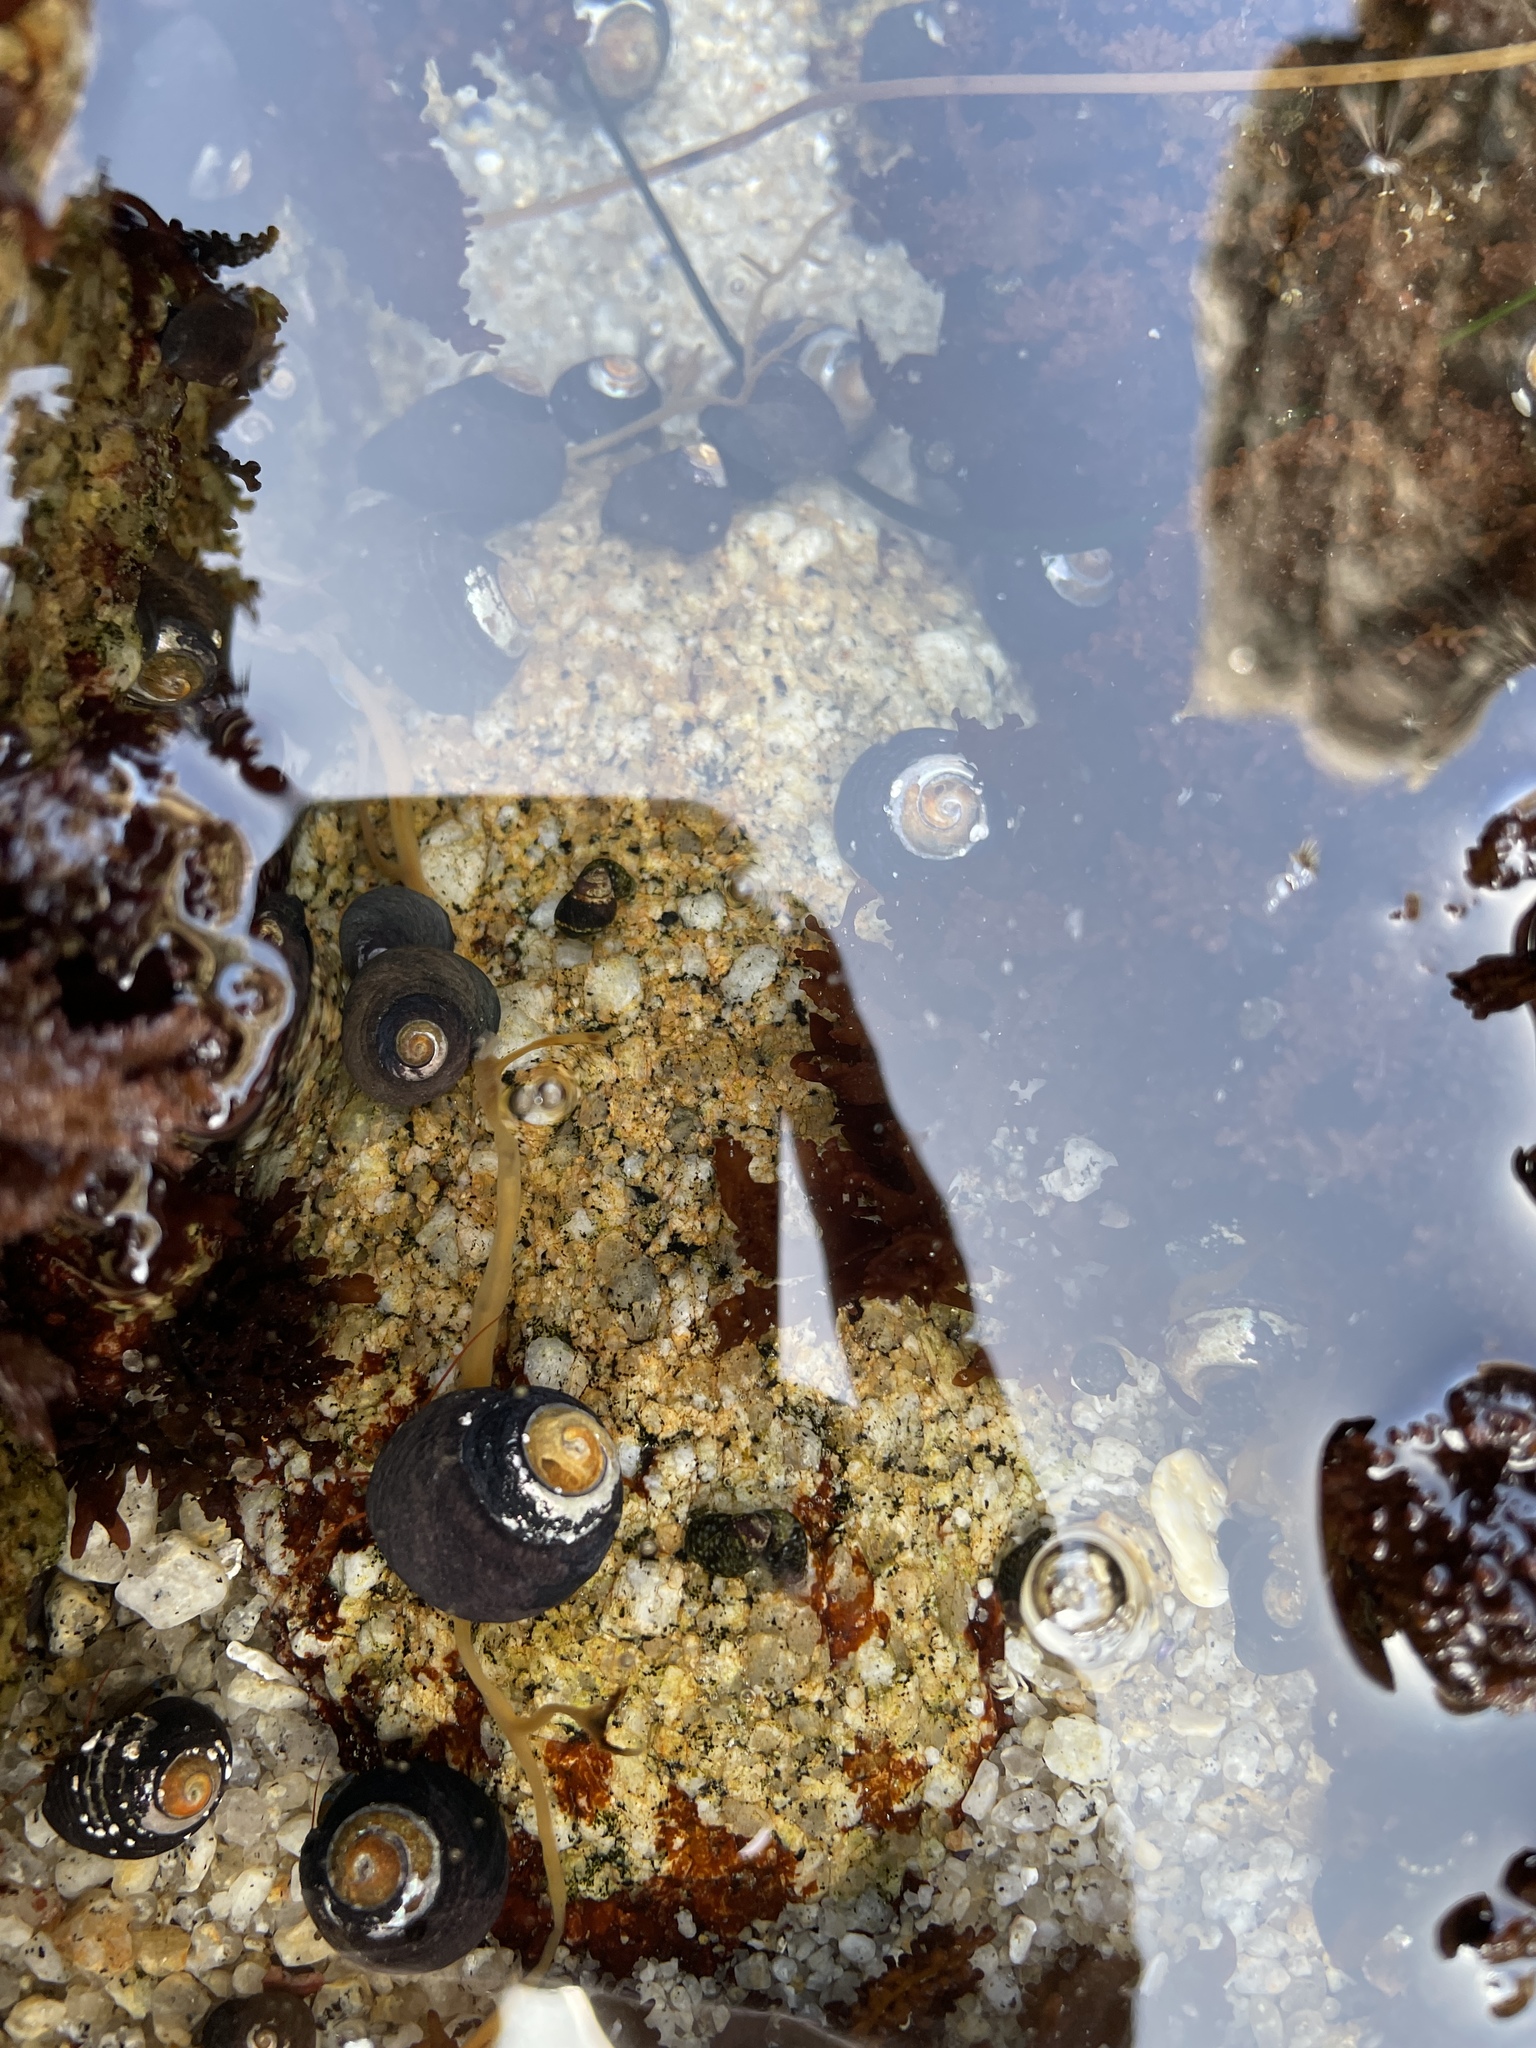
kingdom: Animalia
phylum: Mollusca
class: Gastropoda
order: Trochida
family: Tegulidae
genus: Tegula
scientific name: Tegula funebralis
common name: Black tegula
